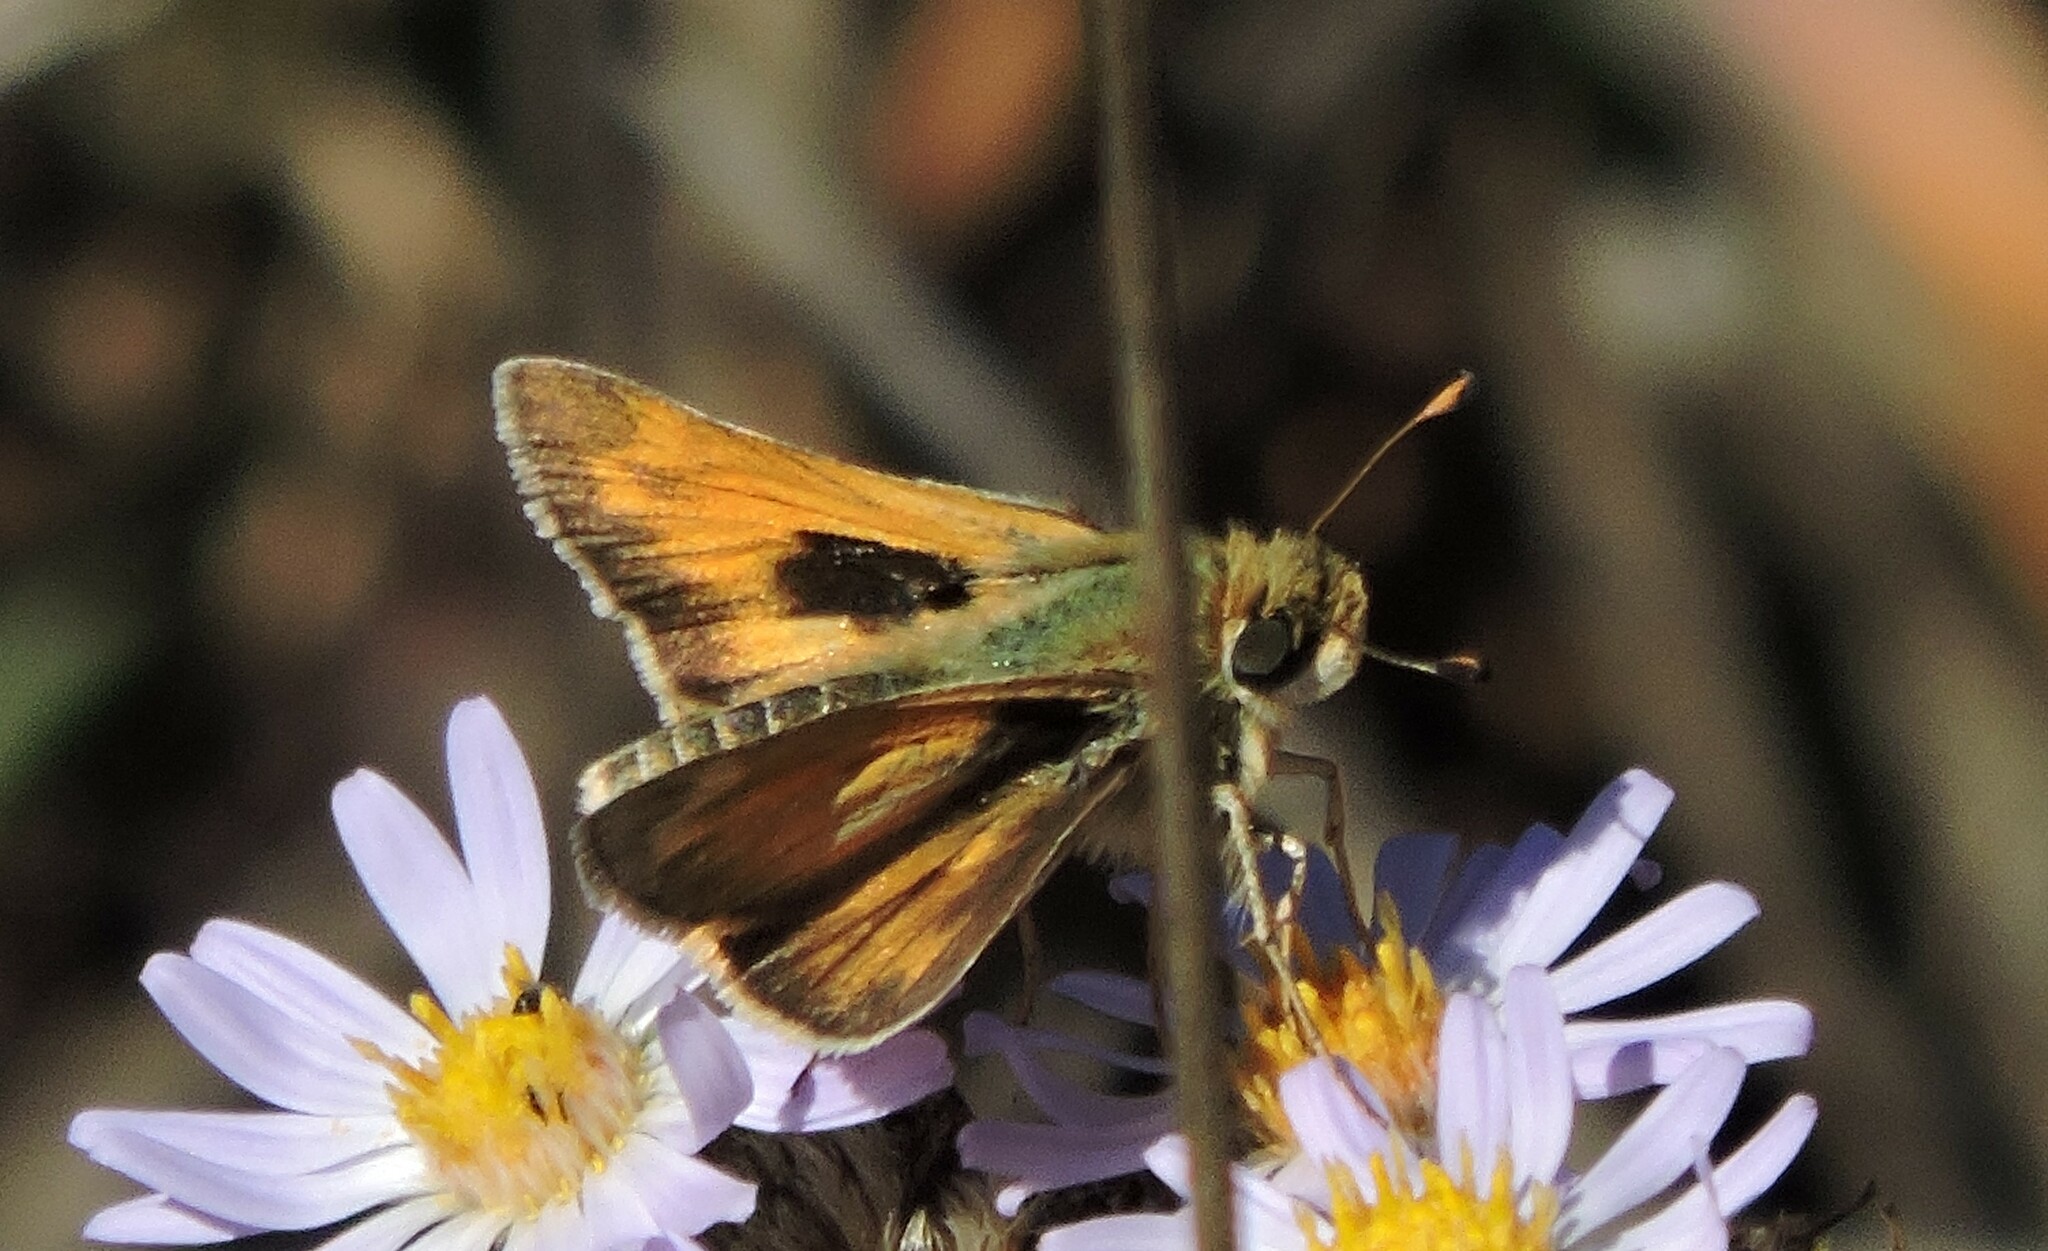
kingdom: Animalia
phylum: Arthropoda
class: Insecta
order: Lepidoptera
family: Hesperiidae
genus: Atalopedes
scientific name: Atalopedes campestris
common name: Sachem
